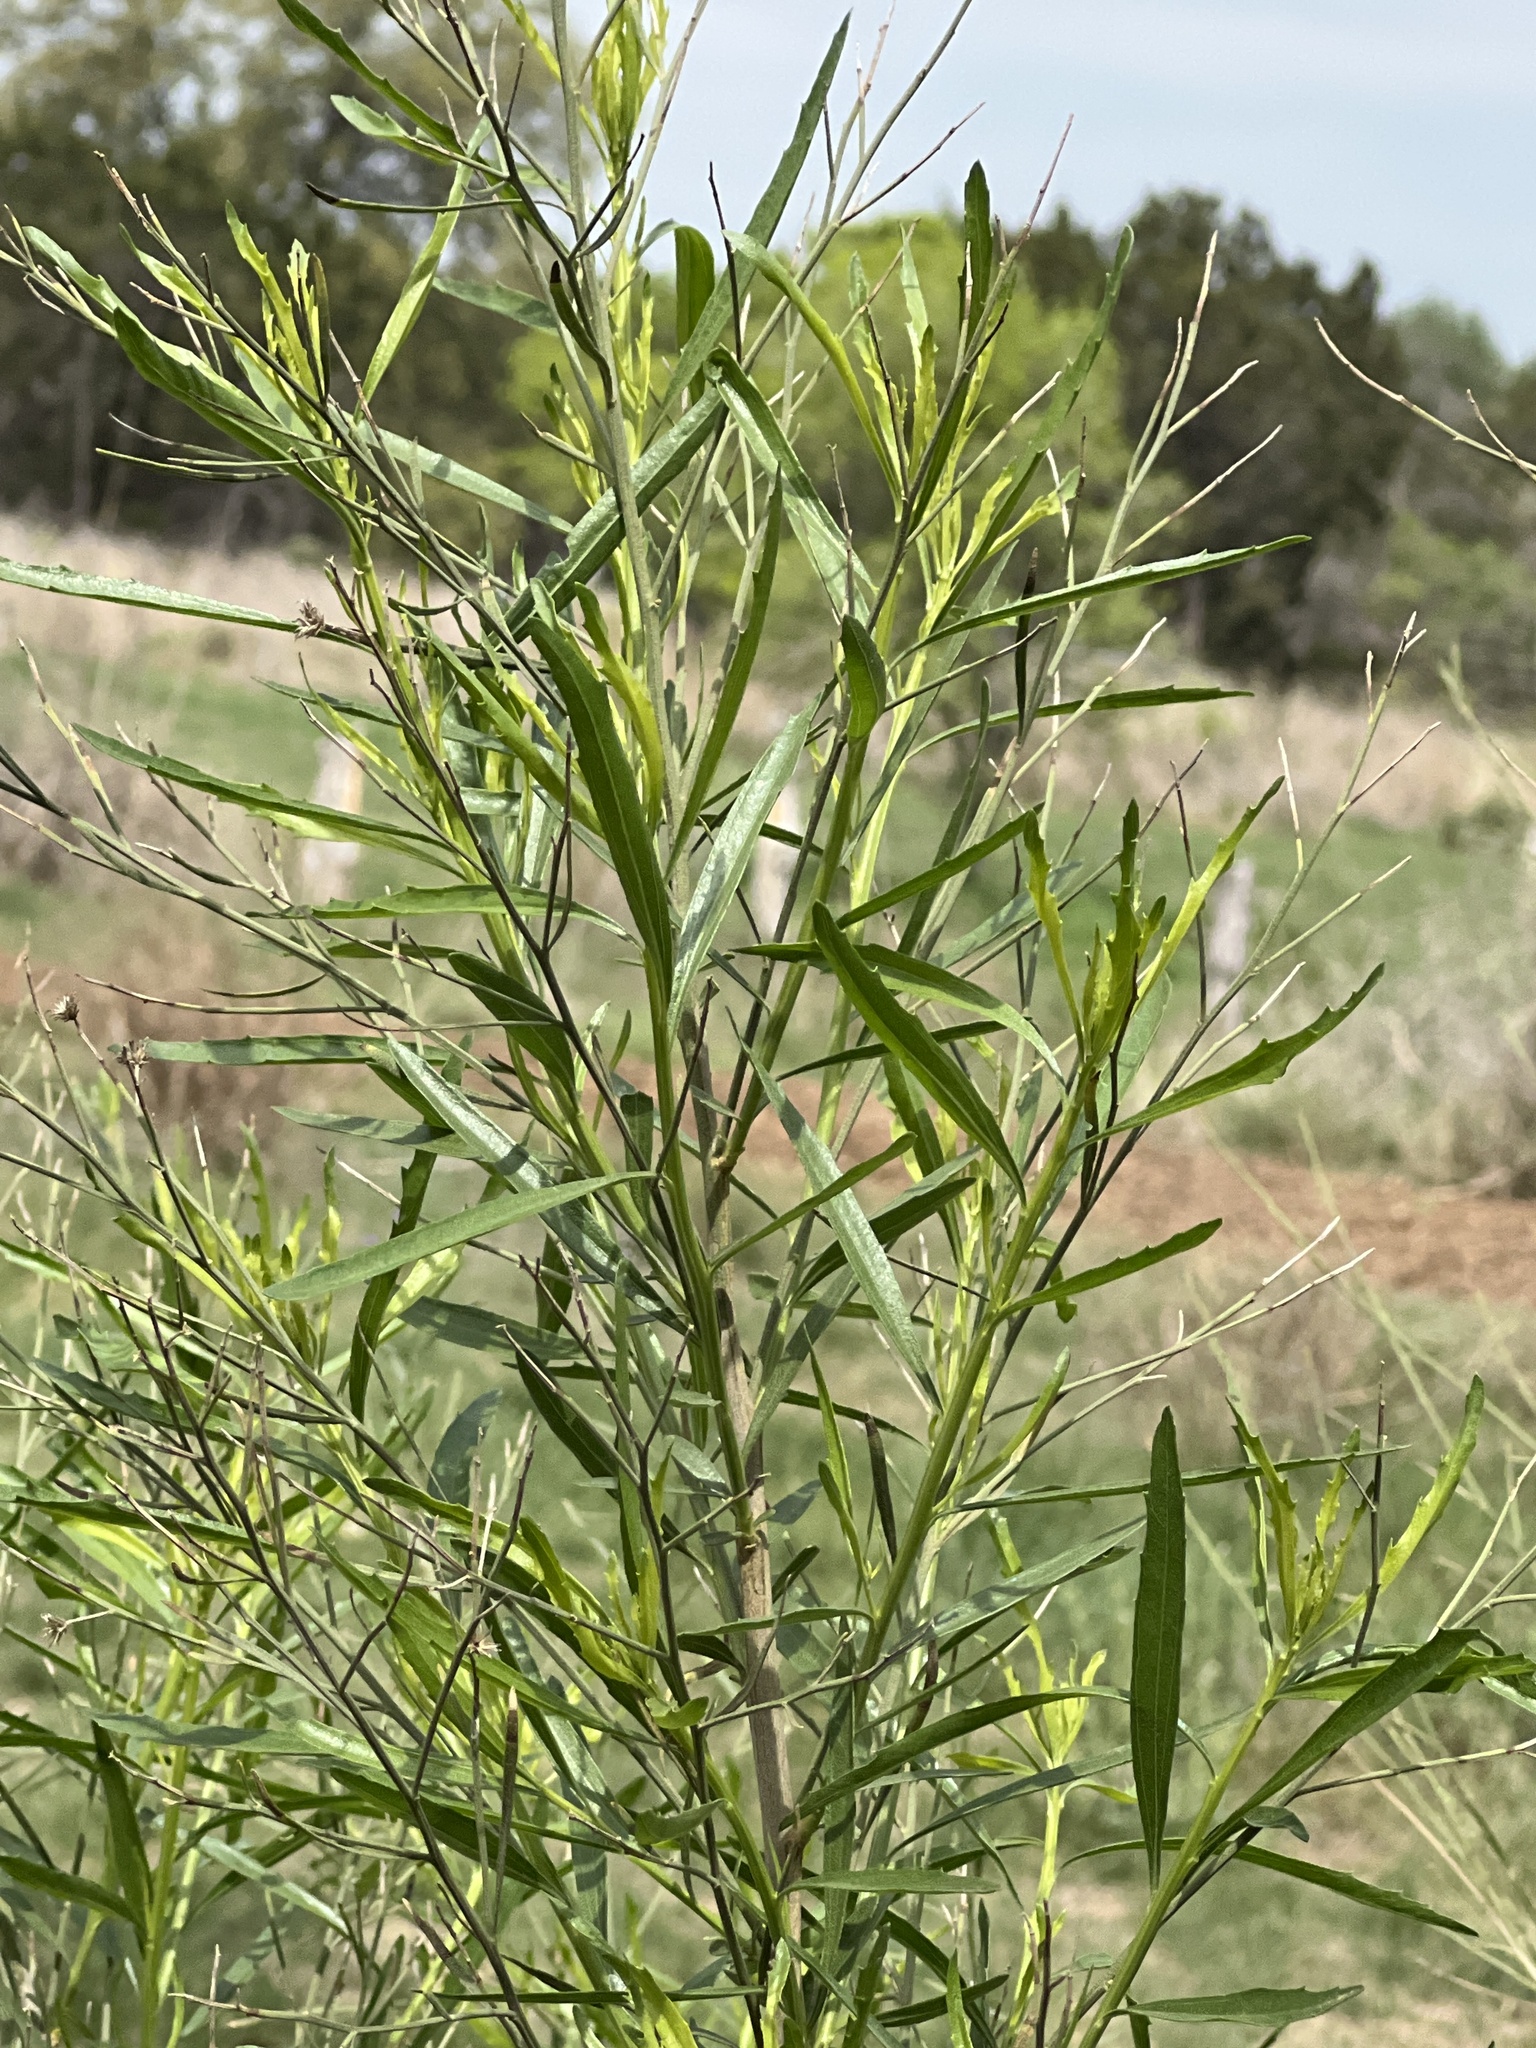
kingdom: Plantae
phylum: Tracheophyta
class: Magnoliopsida
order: Asterales
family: Asteraceae
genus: Baccharis
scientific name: Baccharis neglecta
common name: Roosevelt-weed
